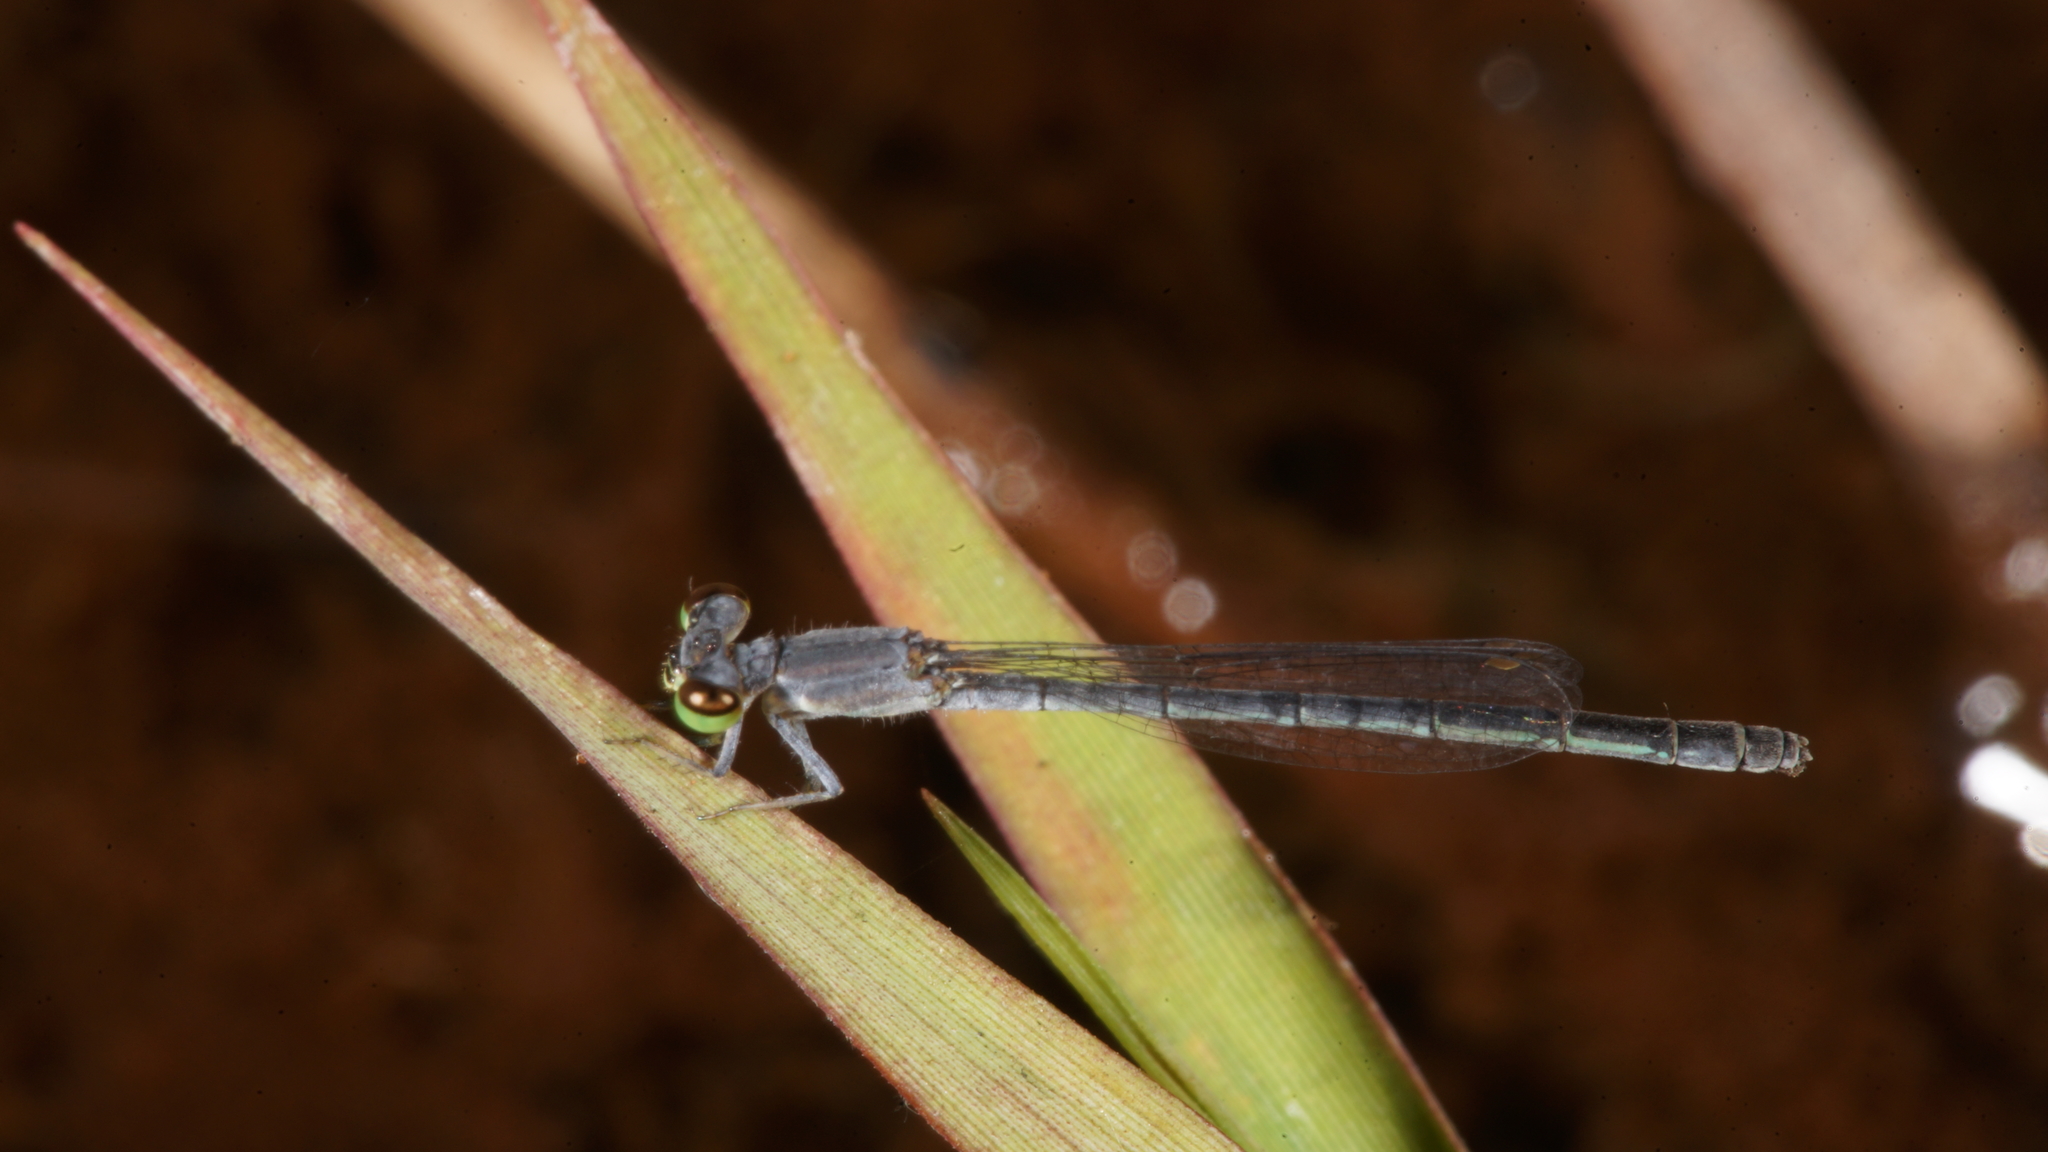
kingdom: Animalia
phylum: Arthropoda
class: Insecta
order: Odonata
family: Coenagrionidae
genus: Agriocnemis
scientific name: Agriocnemis minima
